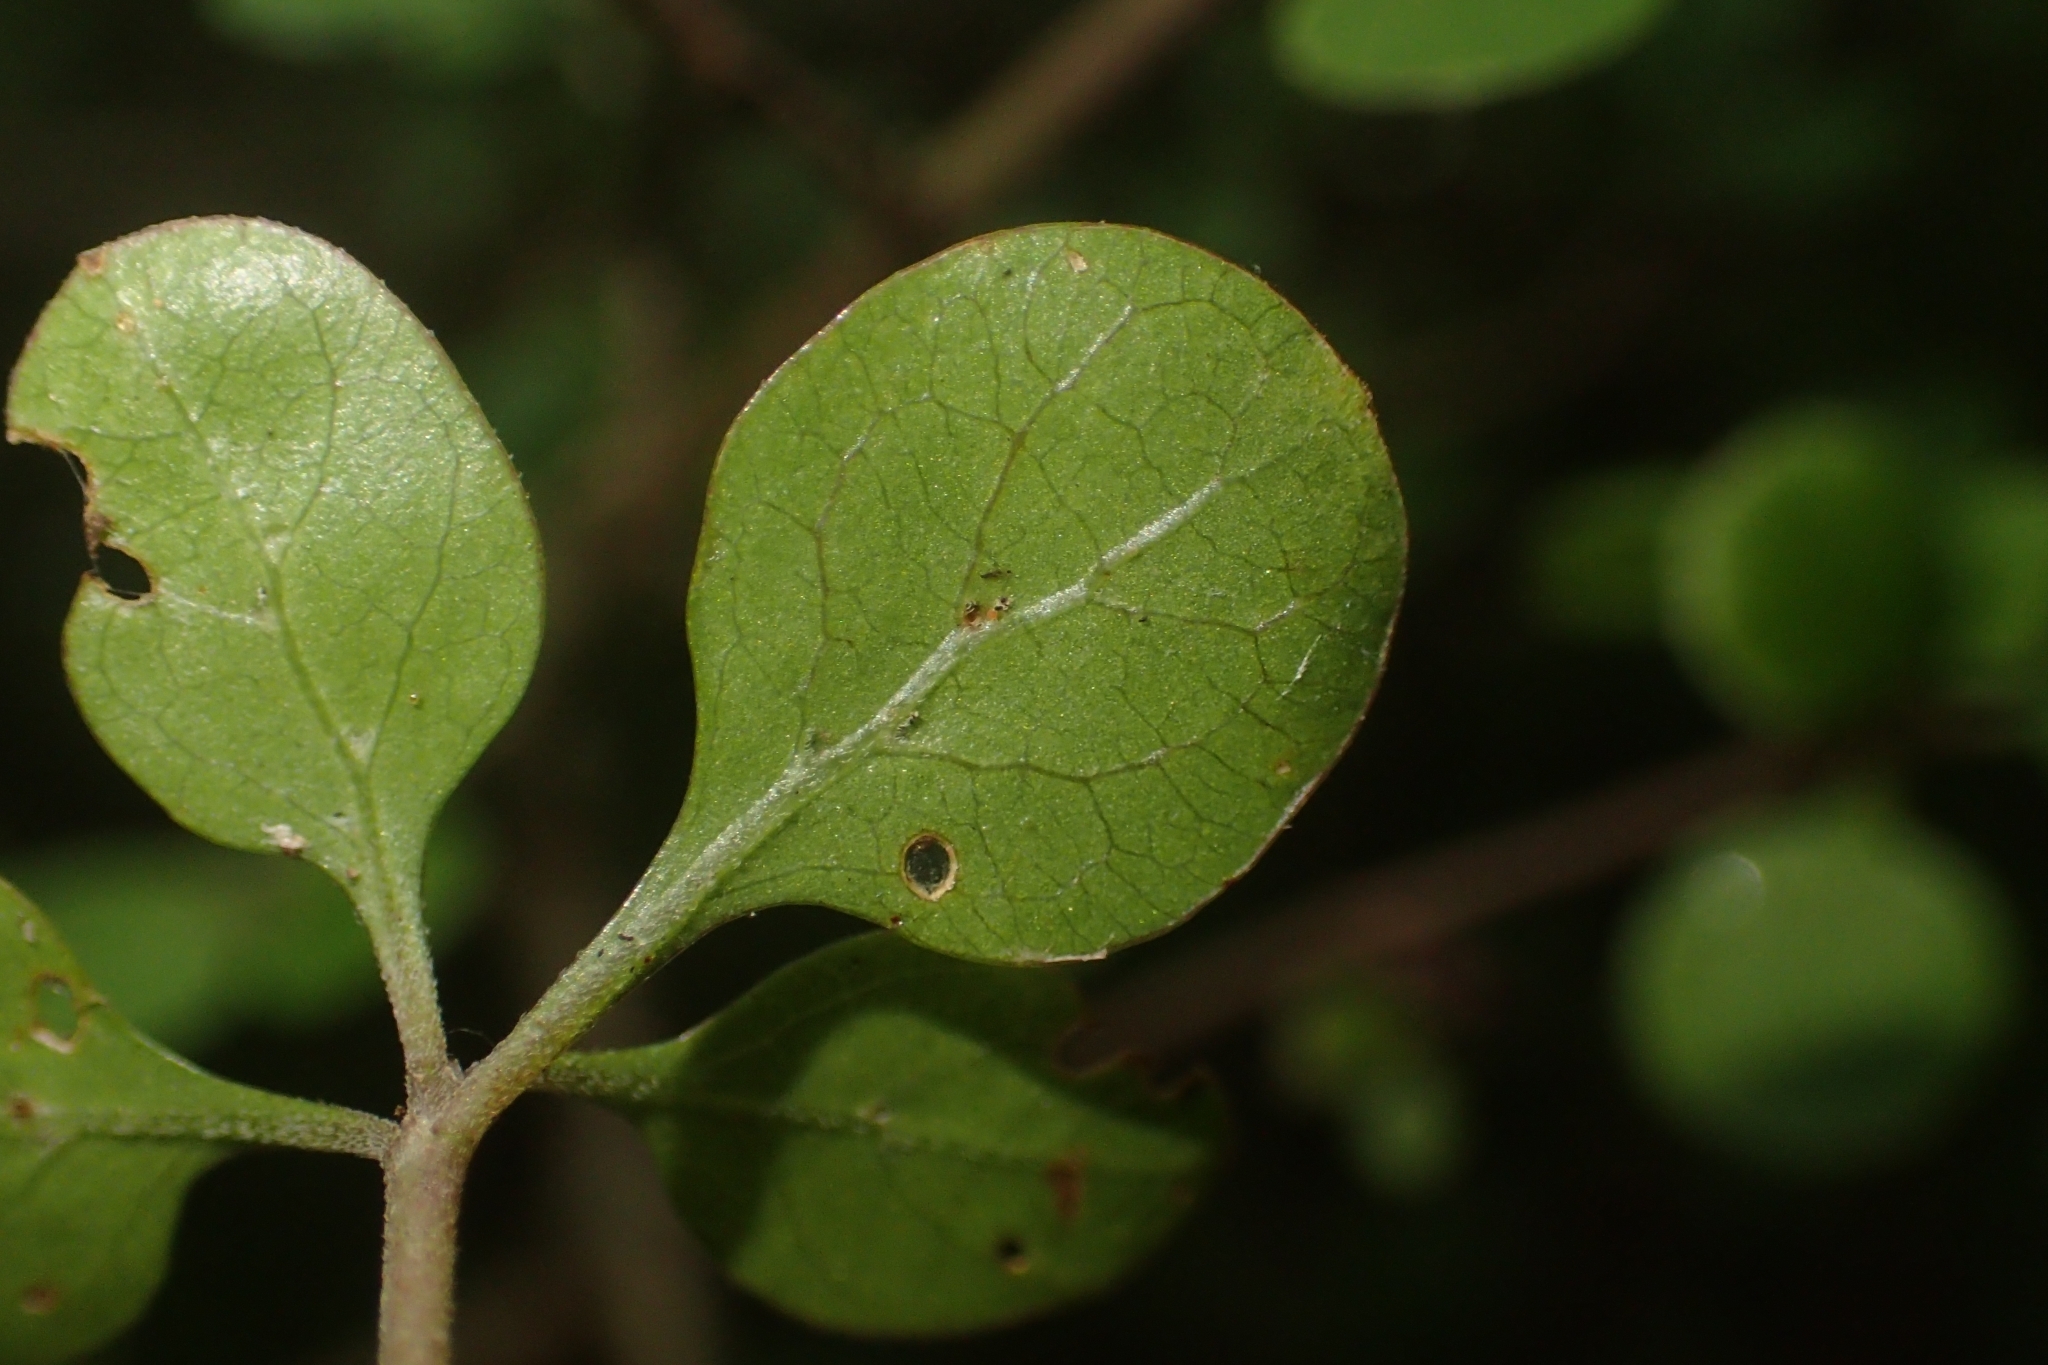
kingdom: Plantae
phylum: Tracheophyta
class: Magnoliopsida
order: Gentianales
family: Rubiaceae
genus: Coprosma
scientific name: Coprosma rhamnoides
